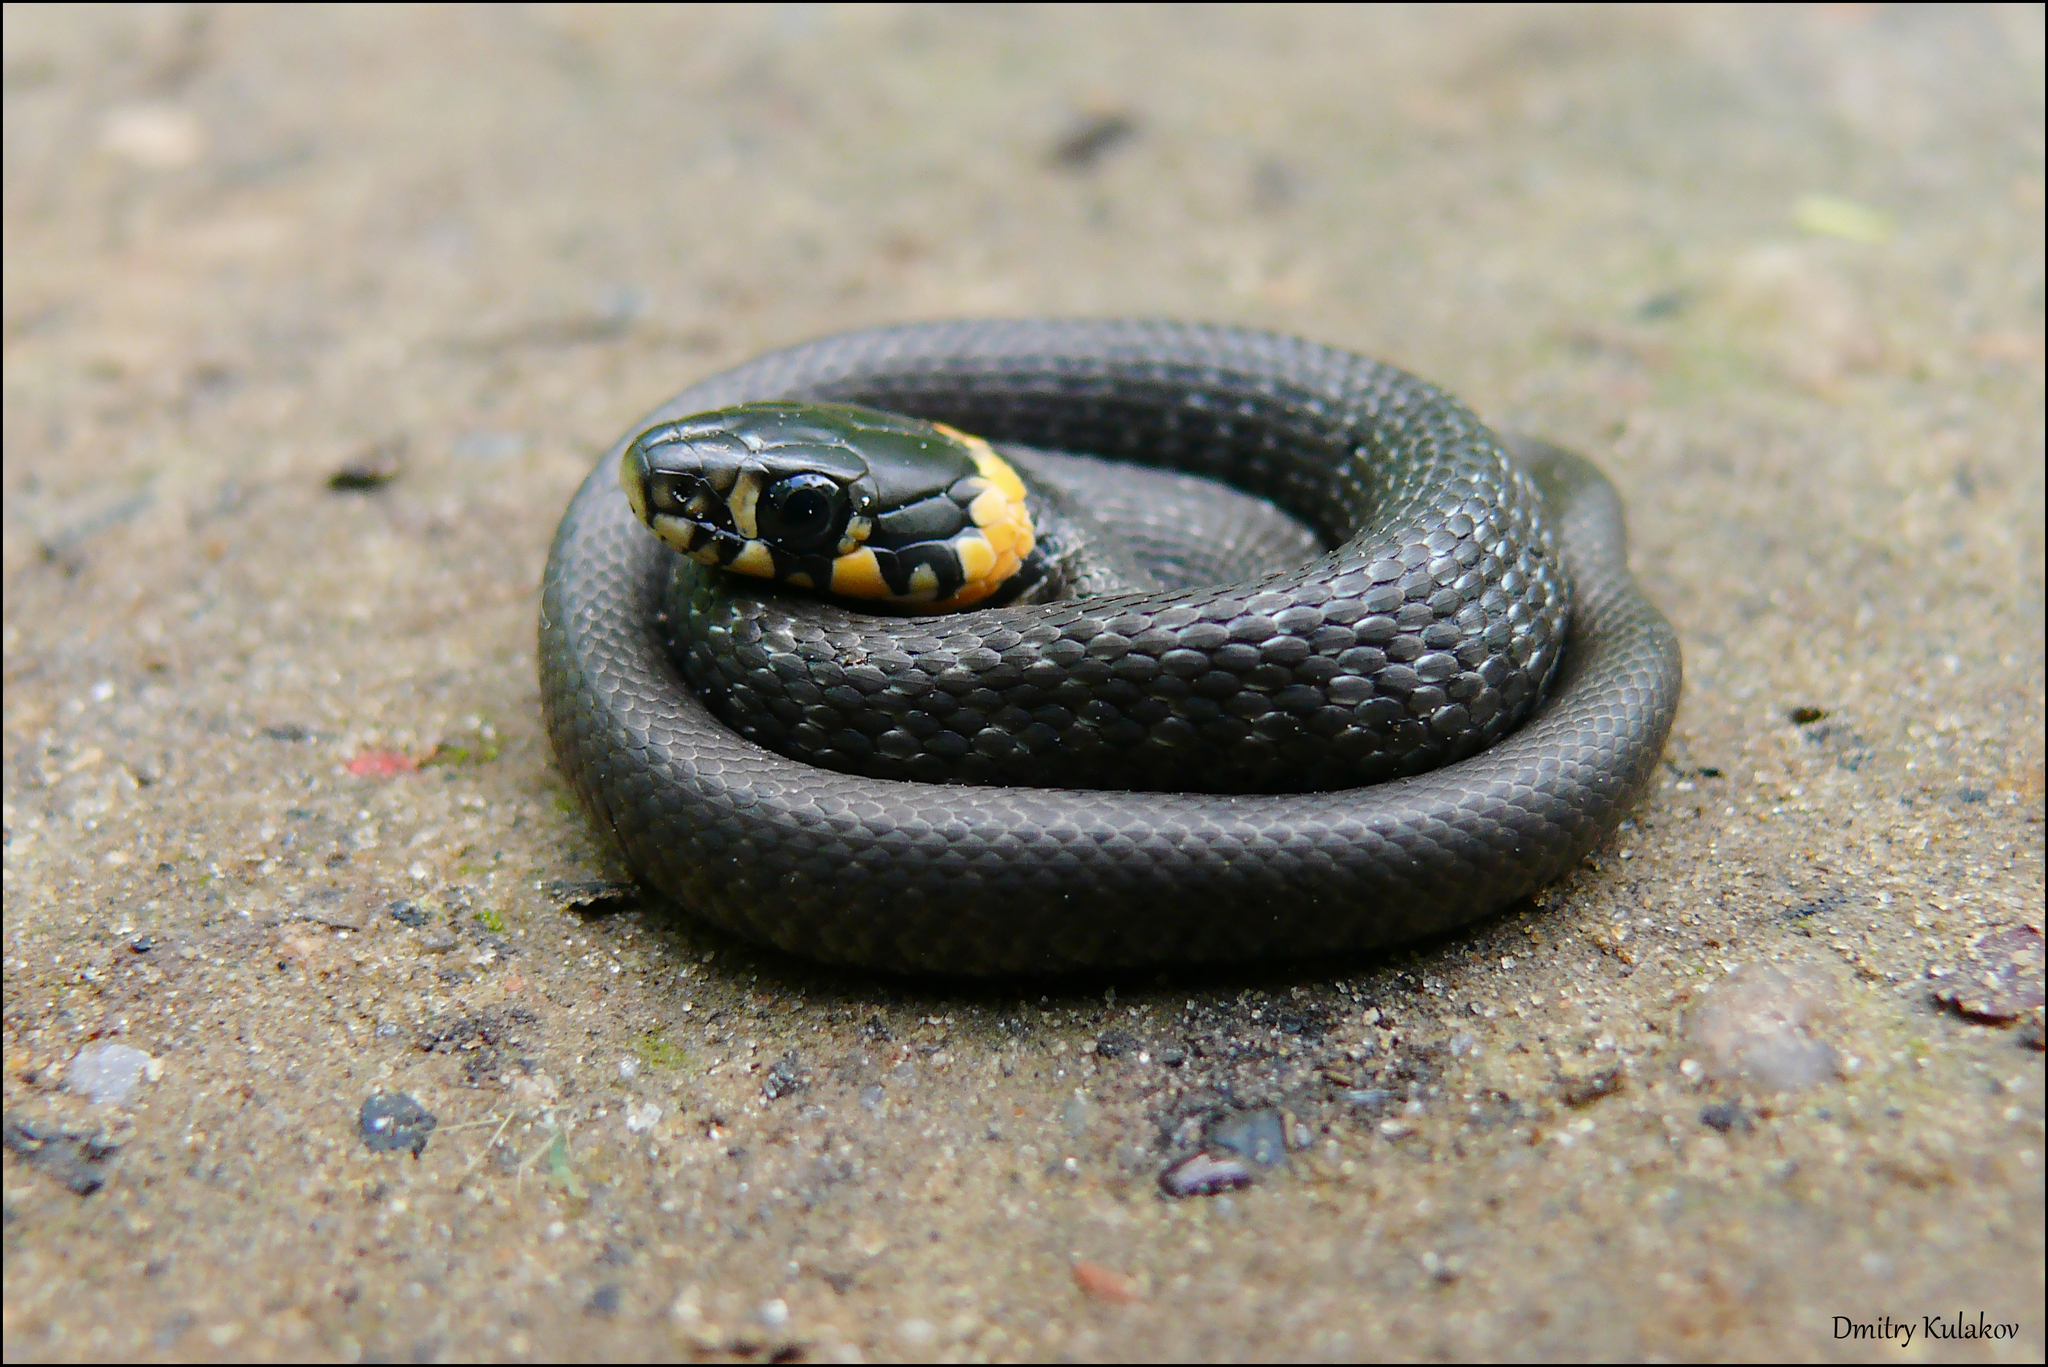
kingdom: Animalia
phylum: Chordata
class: Squamata
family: Colubridae
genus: Natrix
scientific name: Natrix natrix
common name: Grass snake
